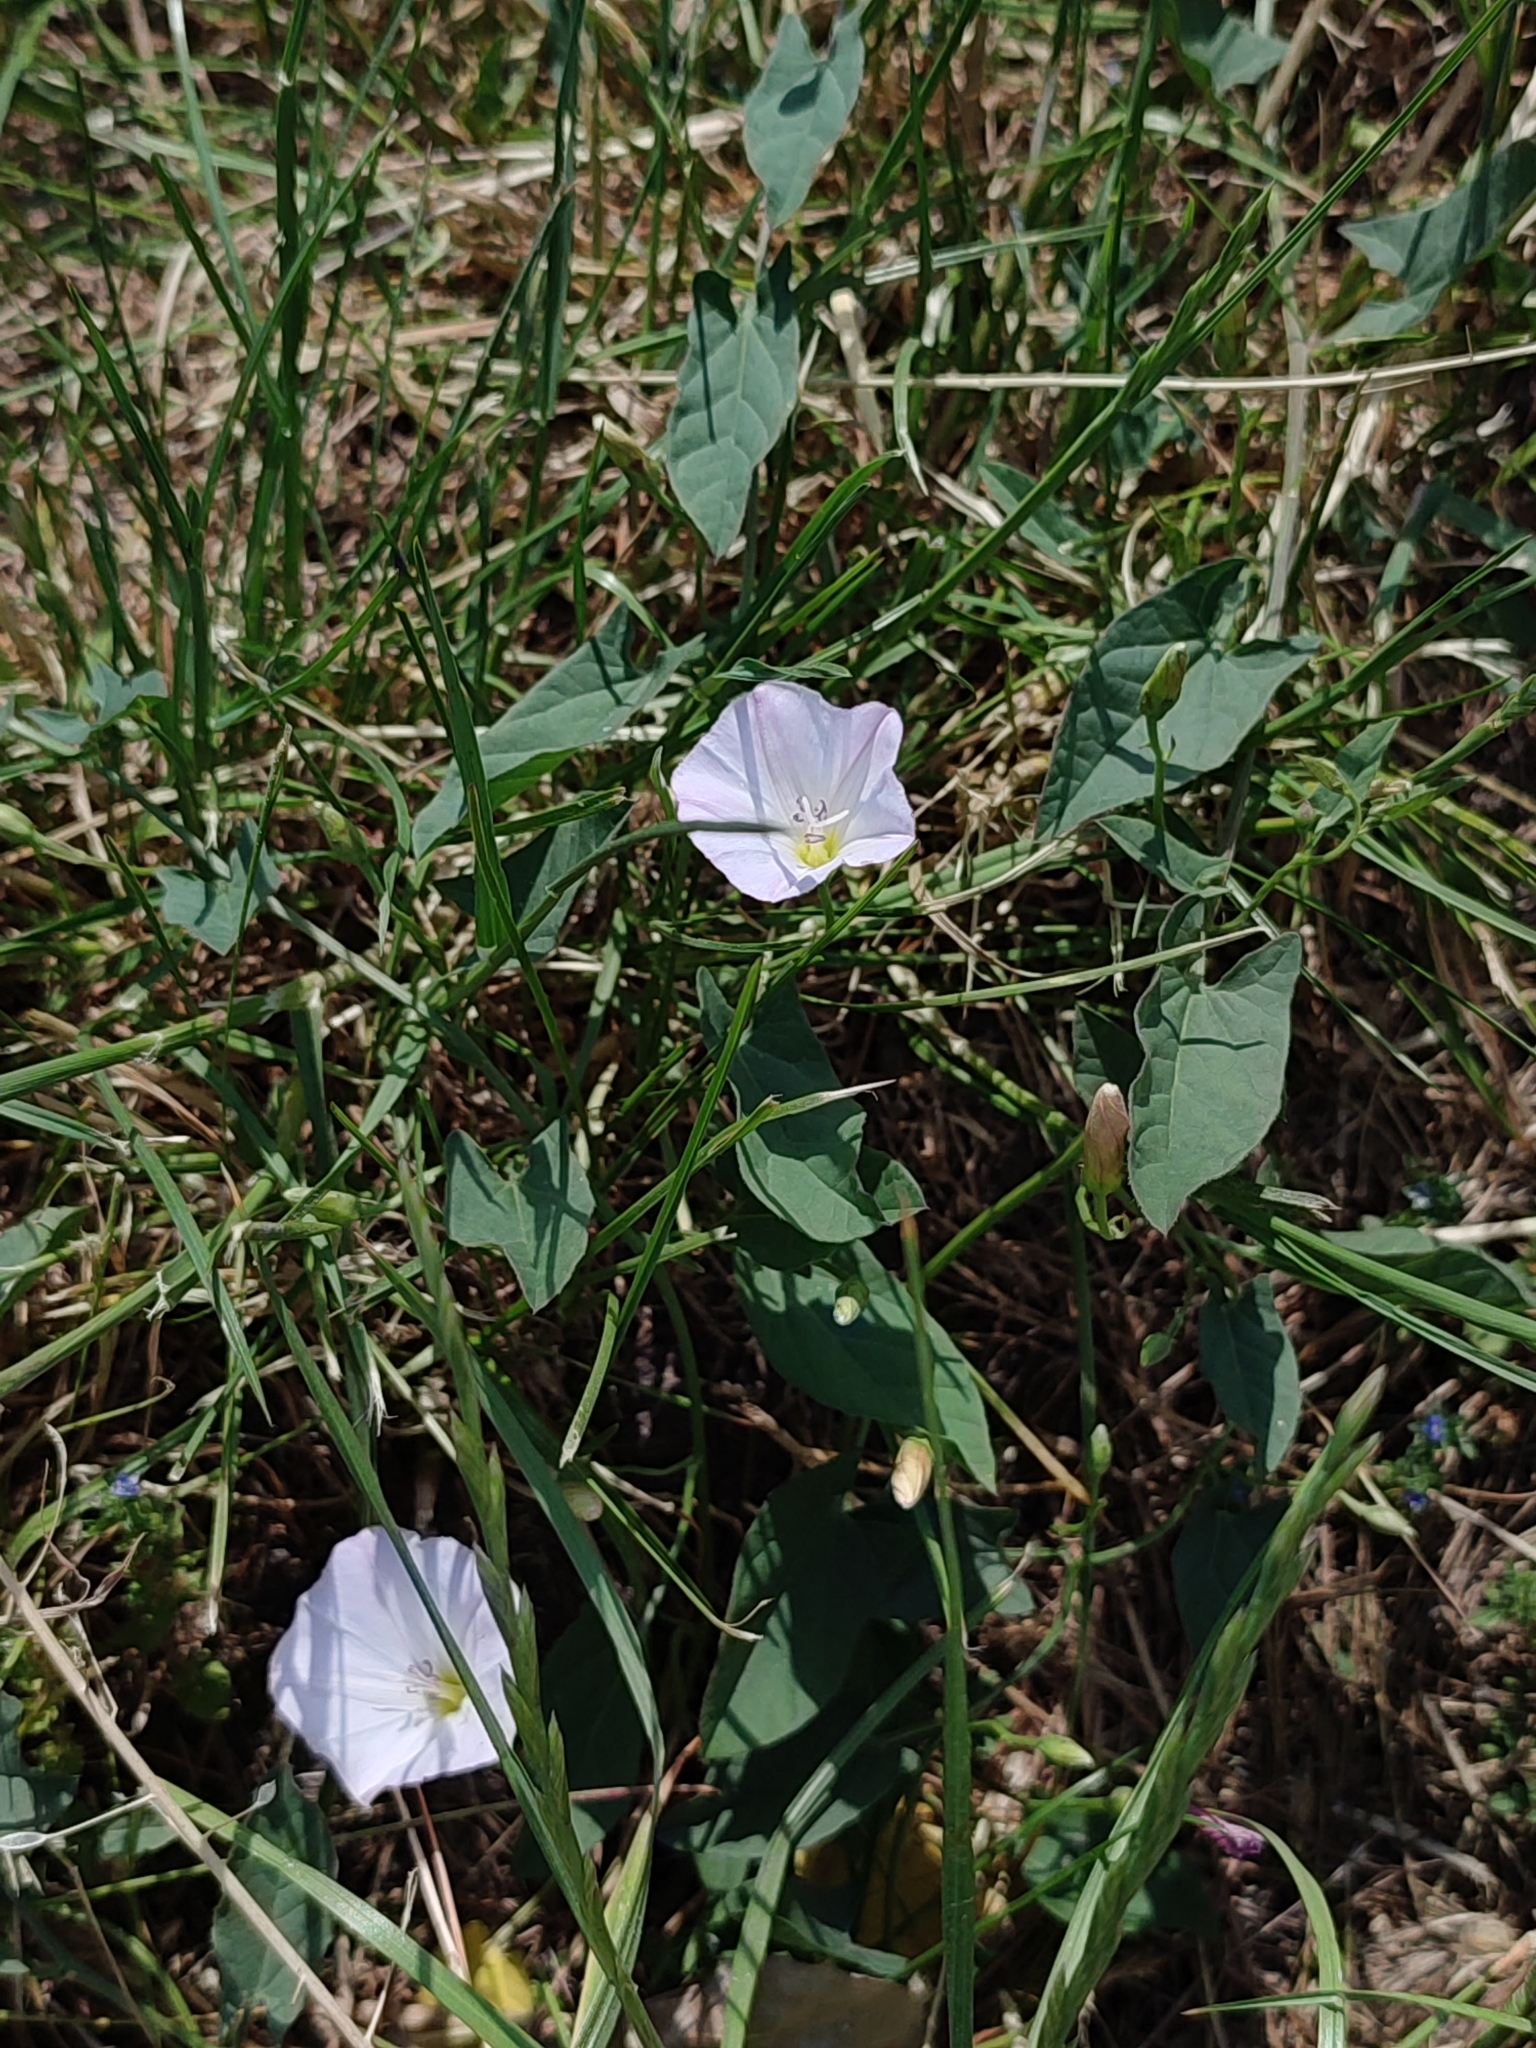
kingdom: Plantae
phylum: Tracheophyta
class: Magnoliopsida
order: Solanales
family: Convolvulaceae
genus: Convolvulus
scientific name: Convolvulus arvensis
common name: Field bindweed
